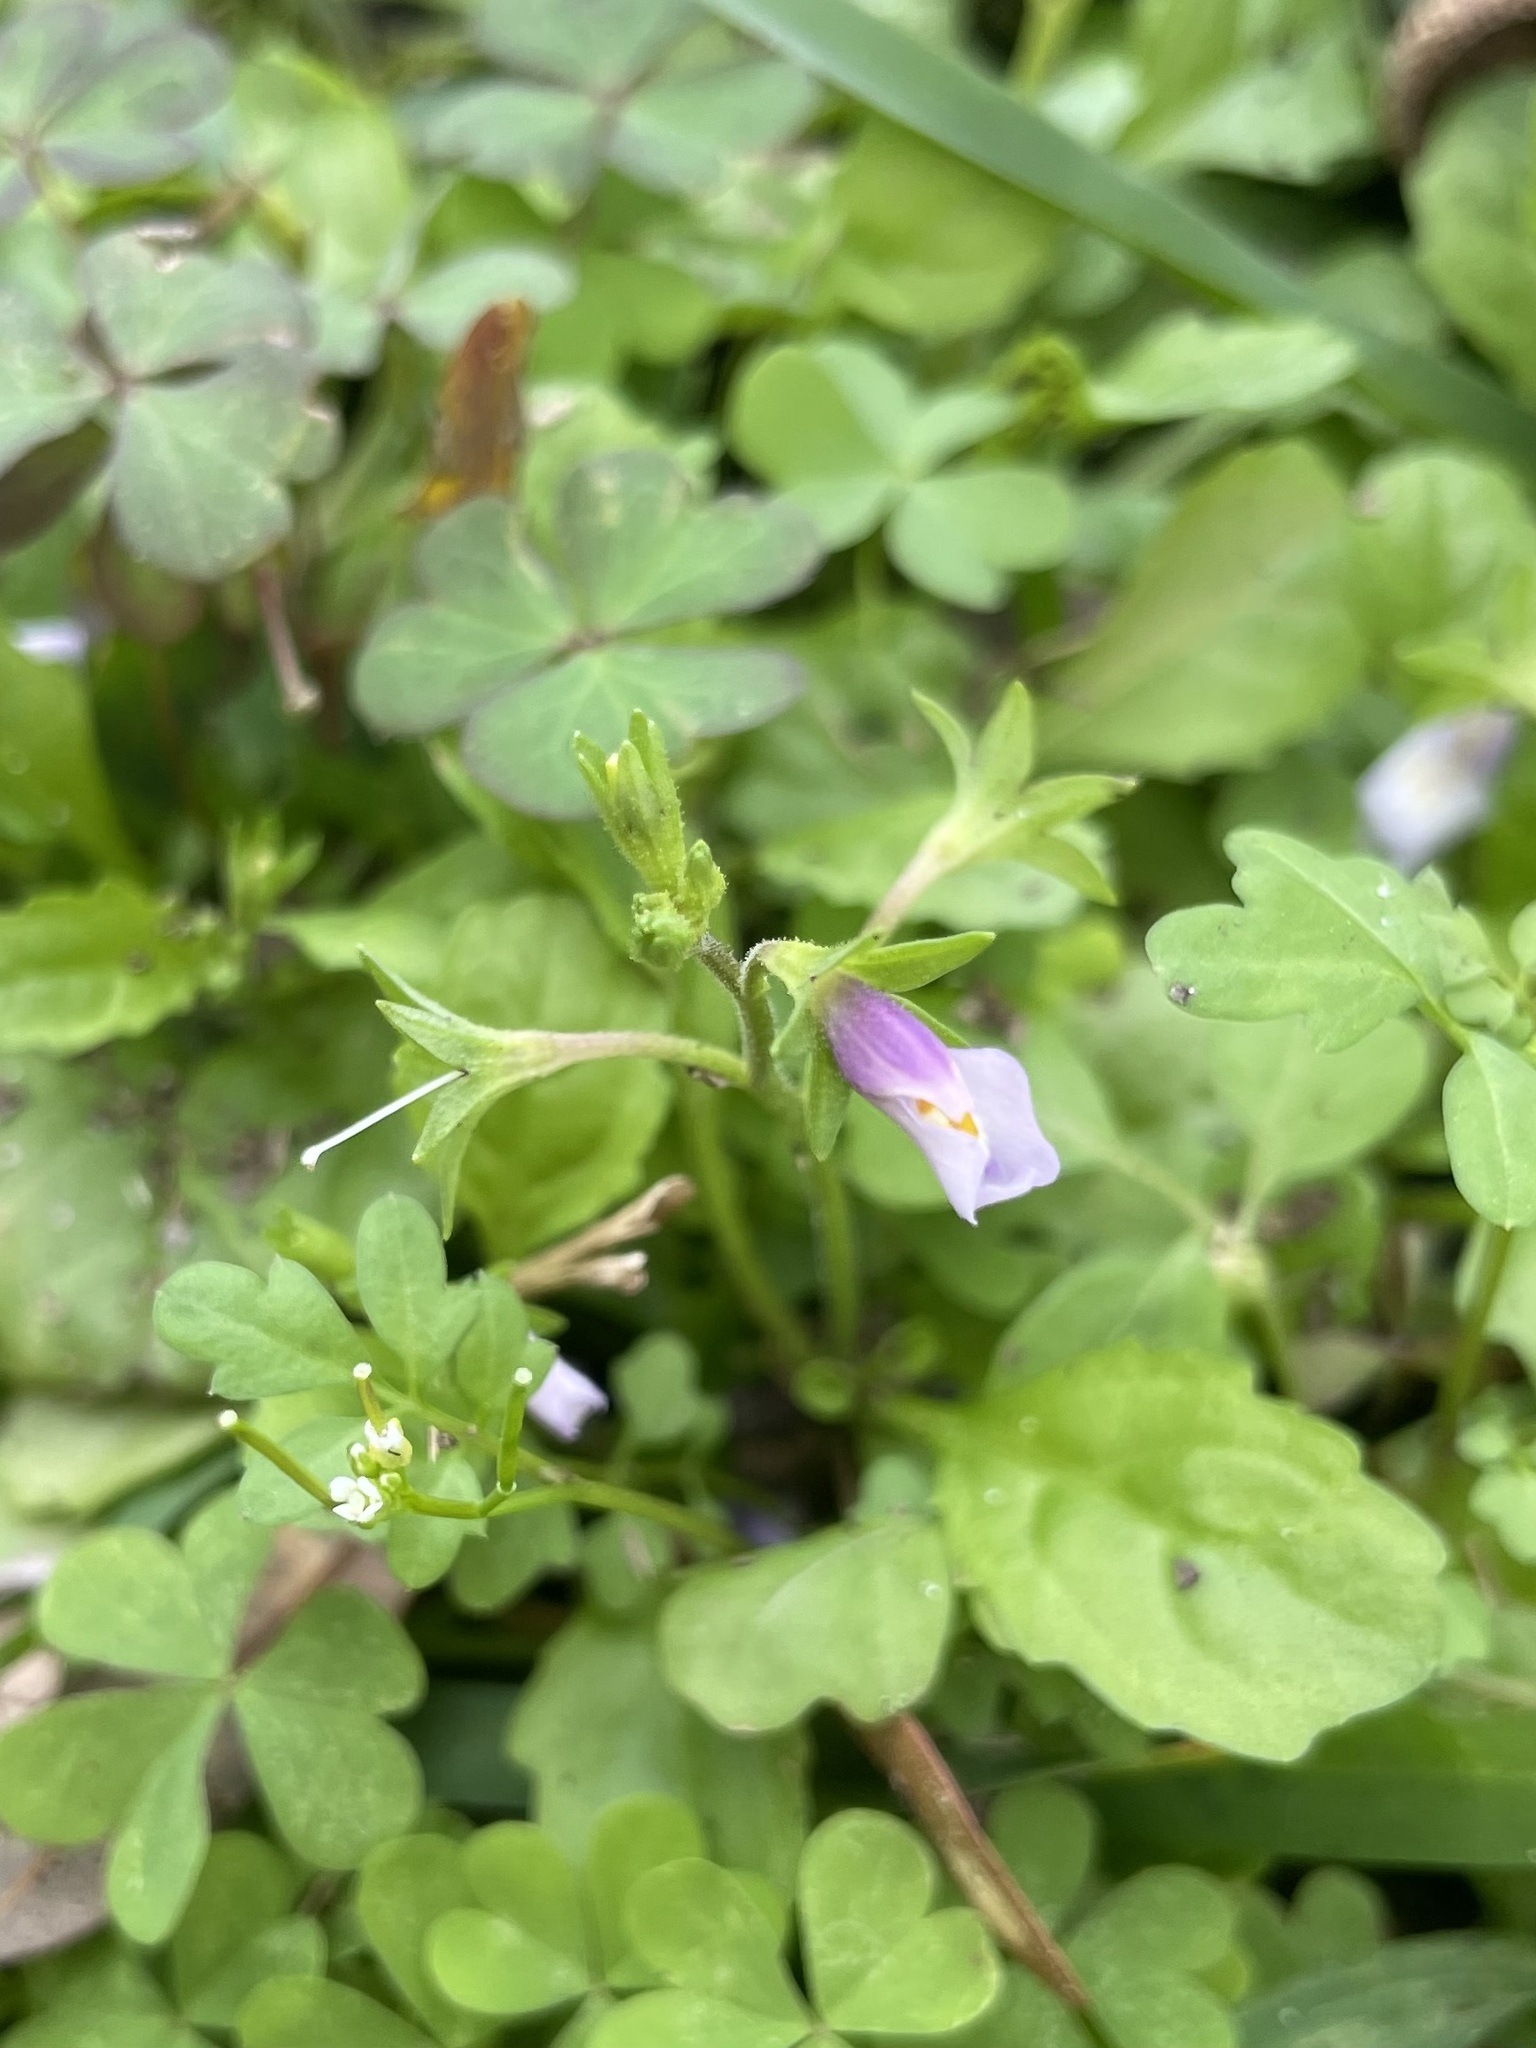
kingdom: Plantae
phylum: Tracheophyta
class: Magnoliopsida
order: Lamiales
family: Mazaceae
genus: Mazus
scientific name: Mazus pumilus
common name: Japanese mazus
